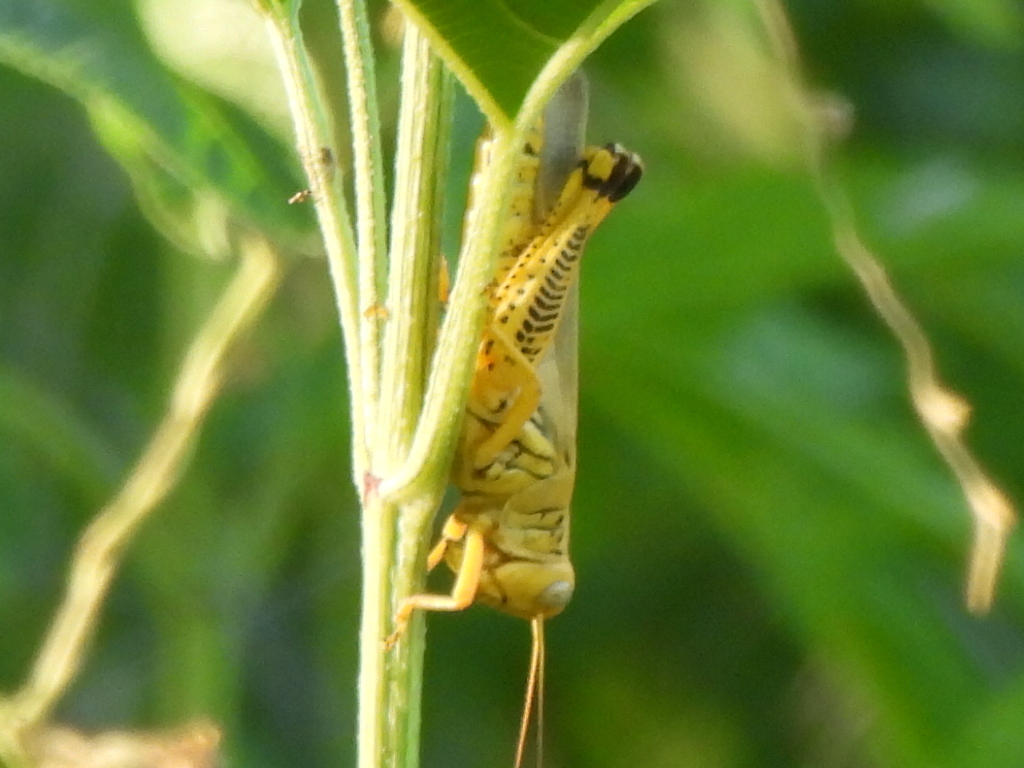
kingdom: Animalia
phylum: Arthropoda
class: Insecta
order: Orthoptera
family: Acrididae
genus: Melanoplus
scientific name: Melanoplus differentialis
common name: Differential grasshopper
